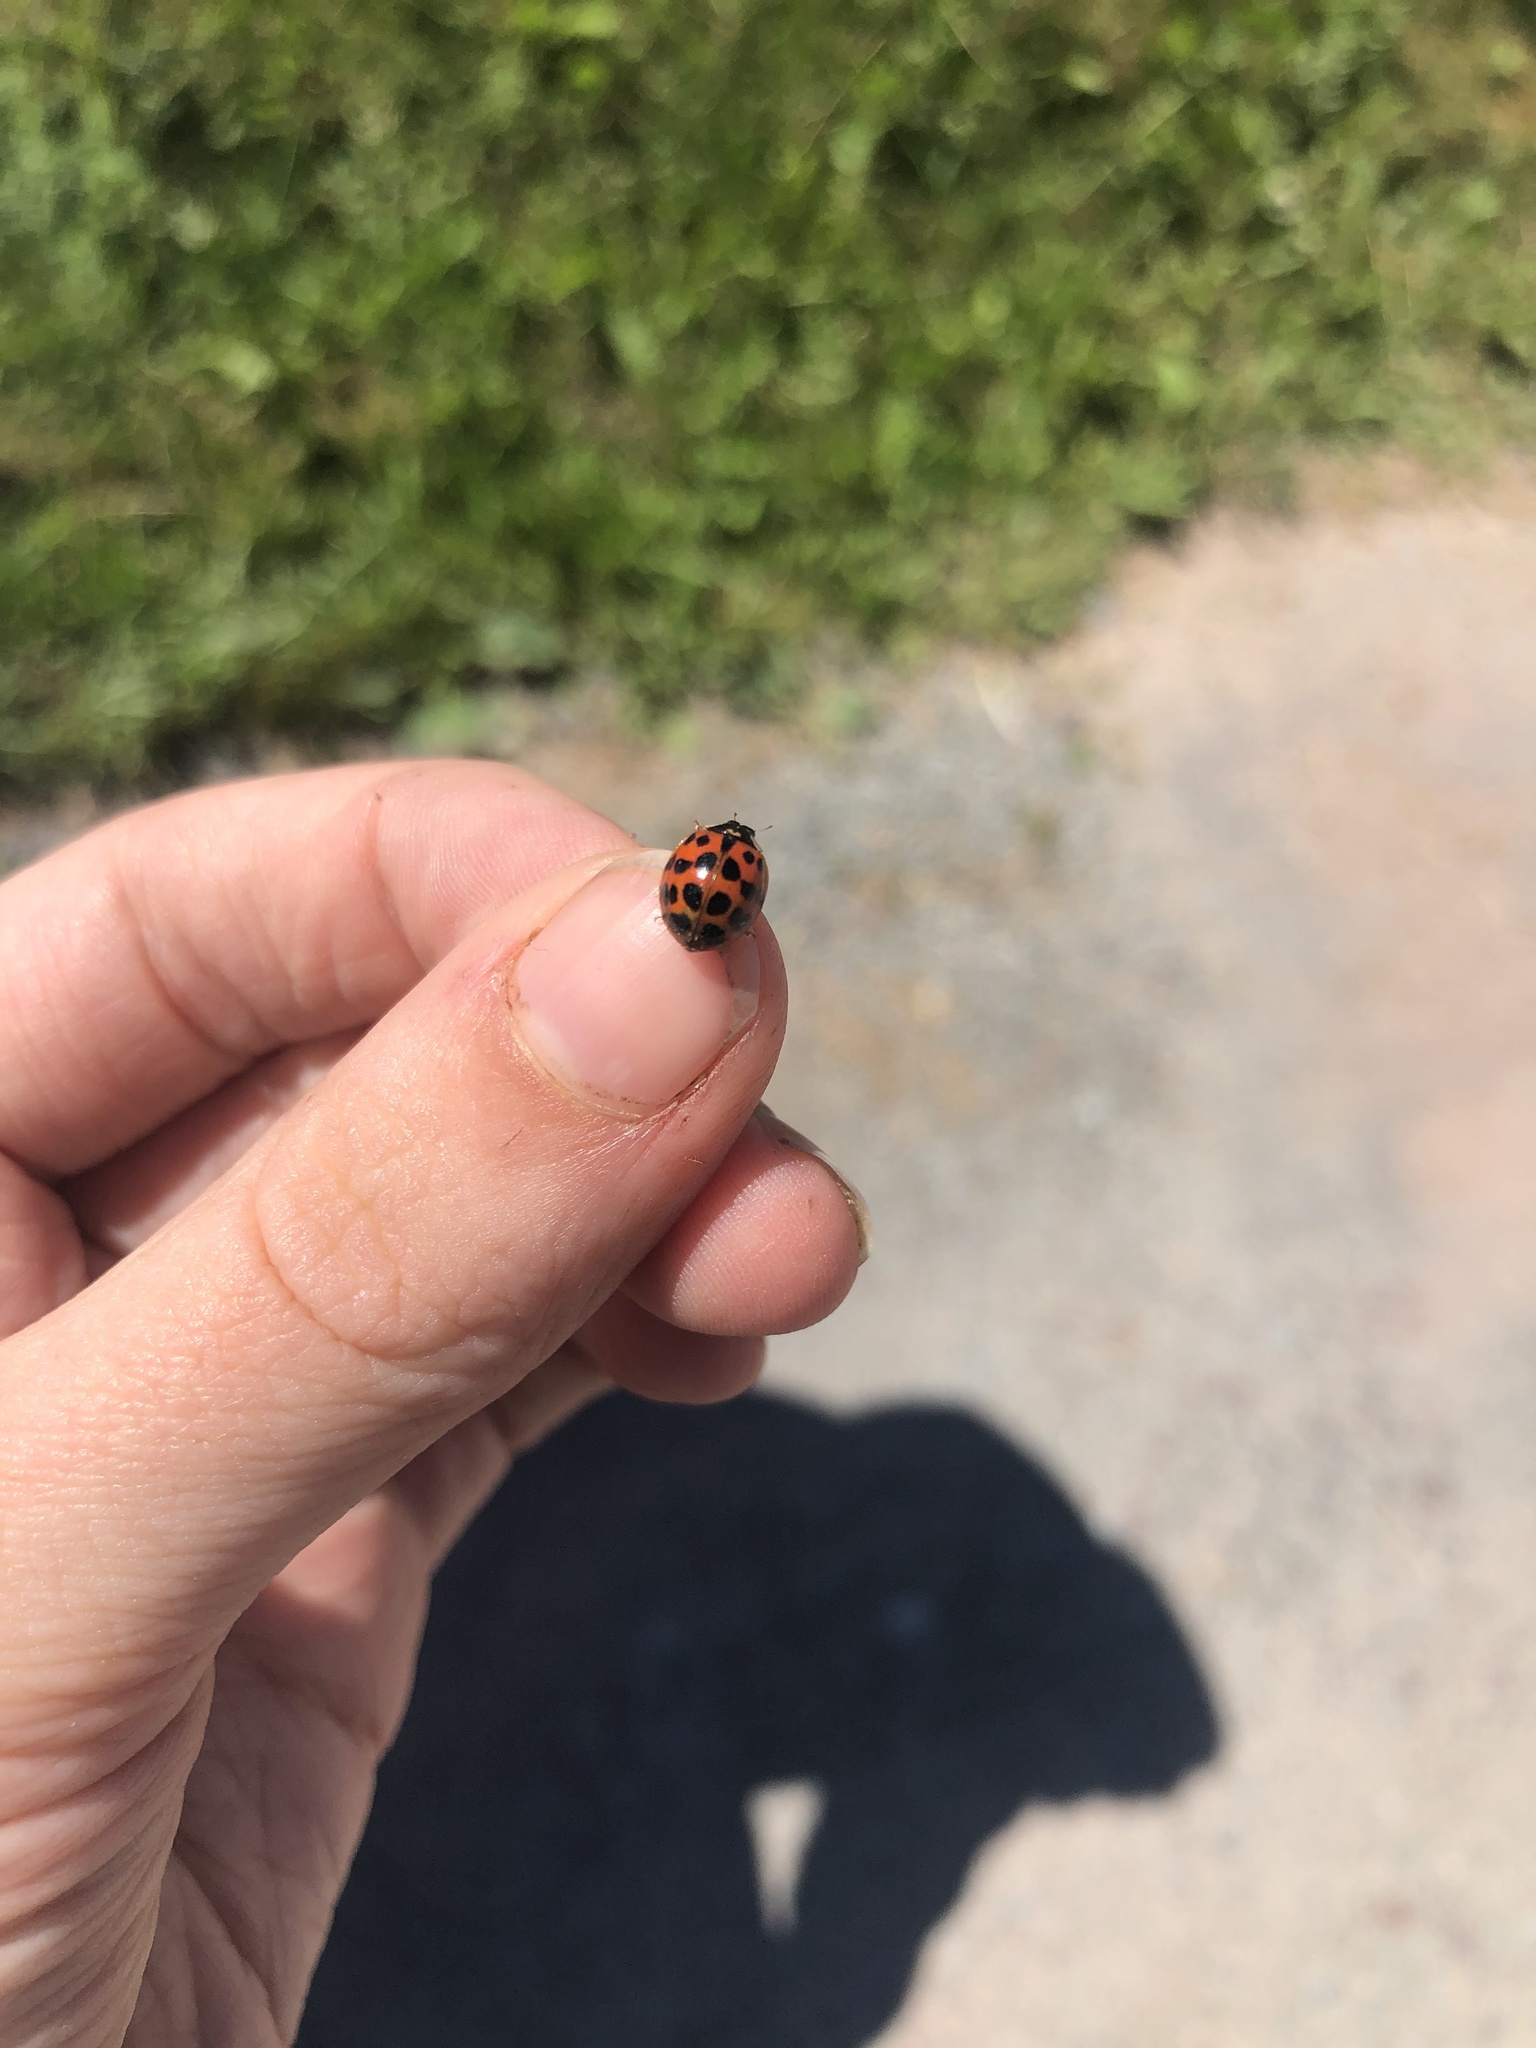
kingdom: Animalia
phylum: Arthropoda
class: Insecta
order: Coleoptera
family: Coccinellidae
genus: Harmonia
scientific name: Harmonia axyridis
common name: Harlequin ladybird
